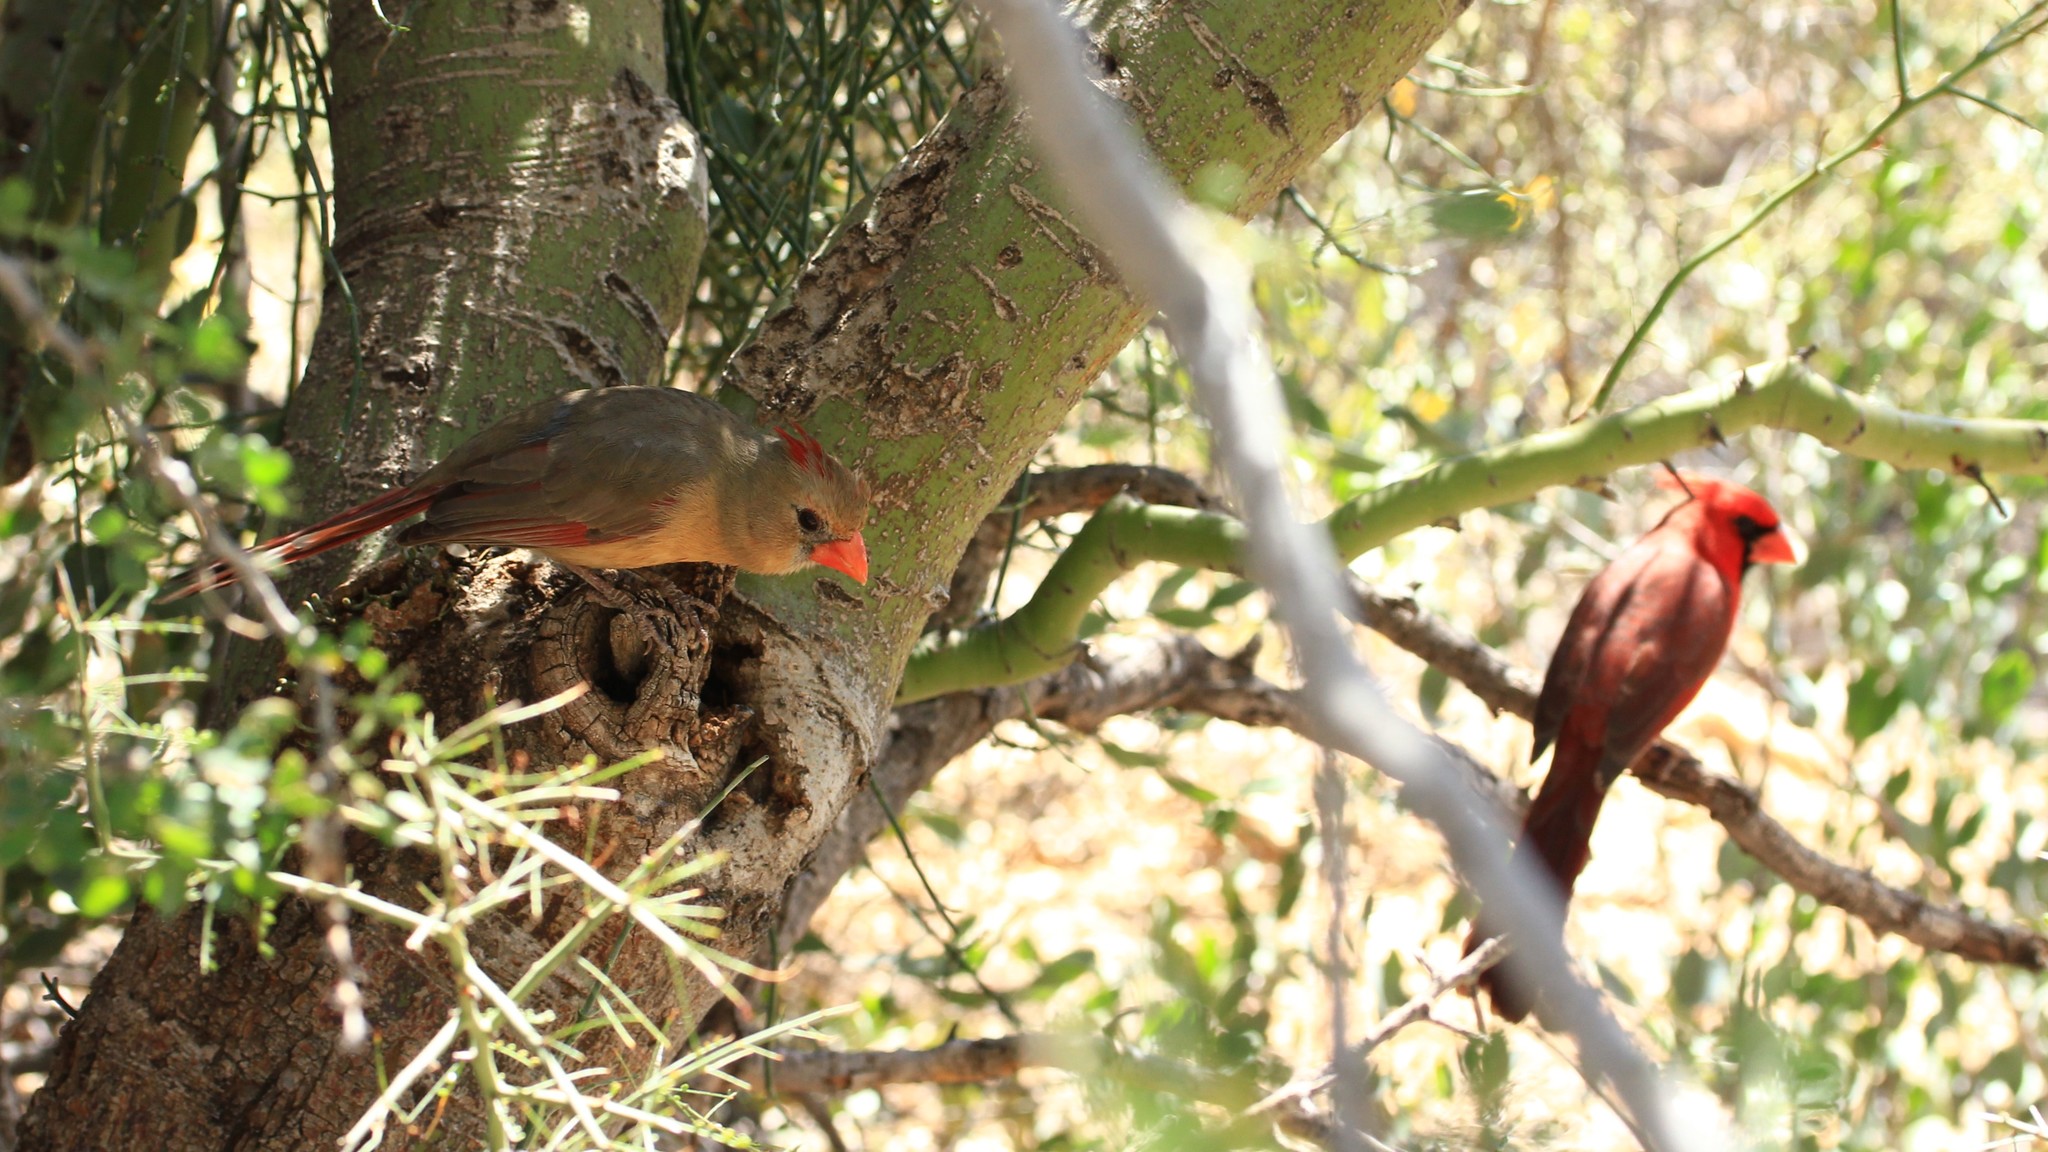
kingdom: Animalia
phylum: Chordata
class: Aves
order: Passeriformes
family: Cardinalidae
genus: Cardinalis
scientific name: Cardinalis cardinalis
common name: Northern cardinal
